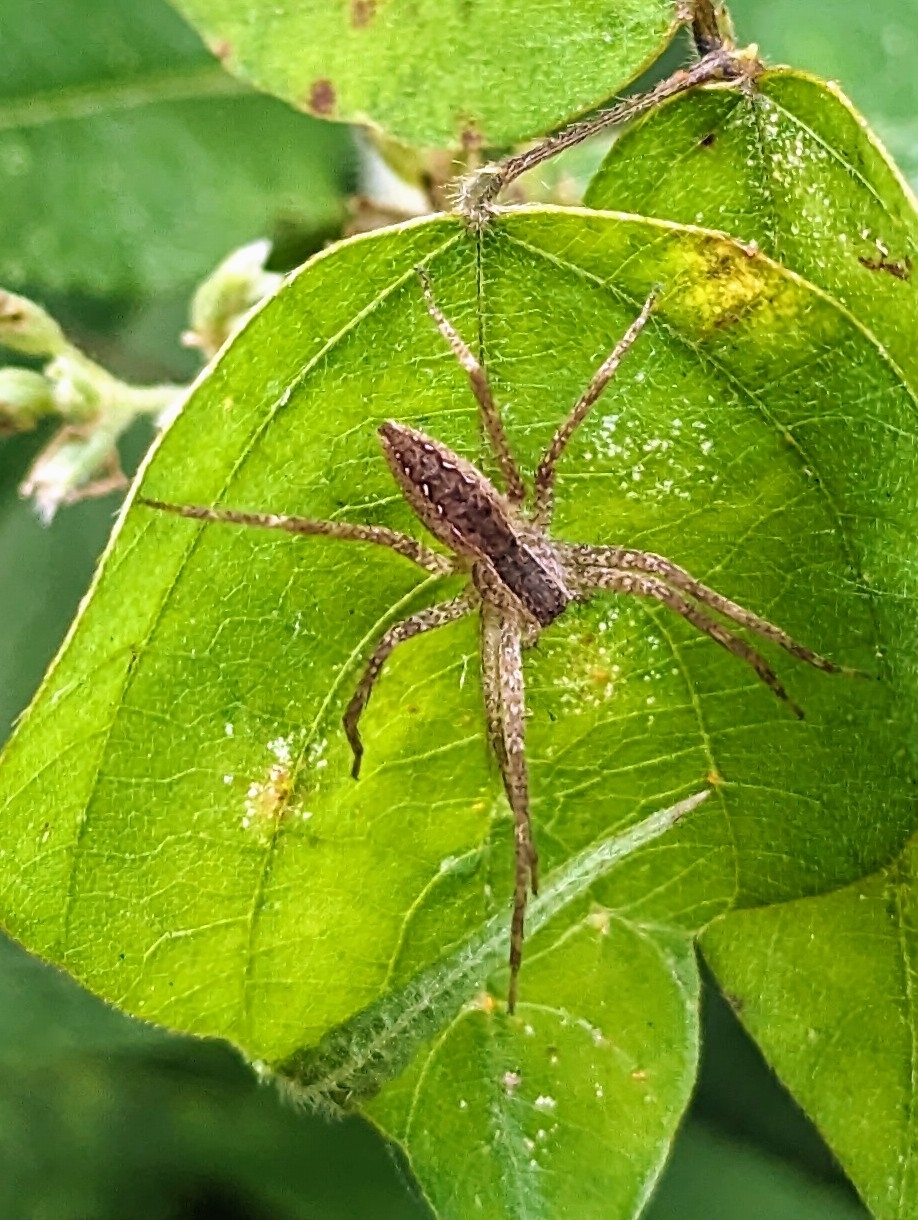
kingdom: Animalia
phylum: Arthropoda
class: Arachnida
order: Araneae
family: Pisauridae
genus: Pisaurina
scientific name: Pisaurina mira
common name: American nursery web spider
